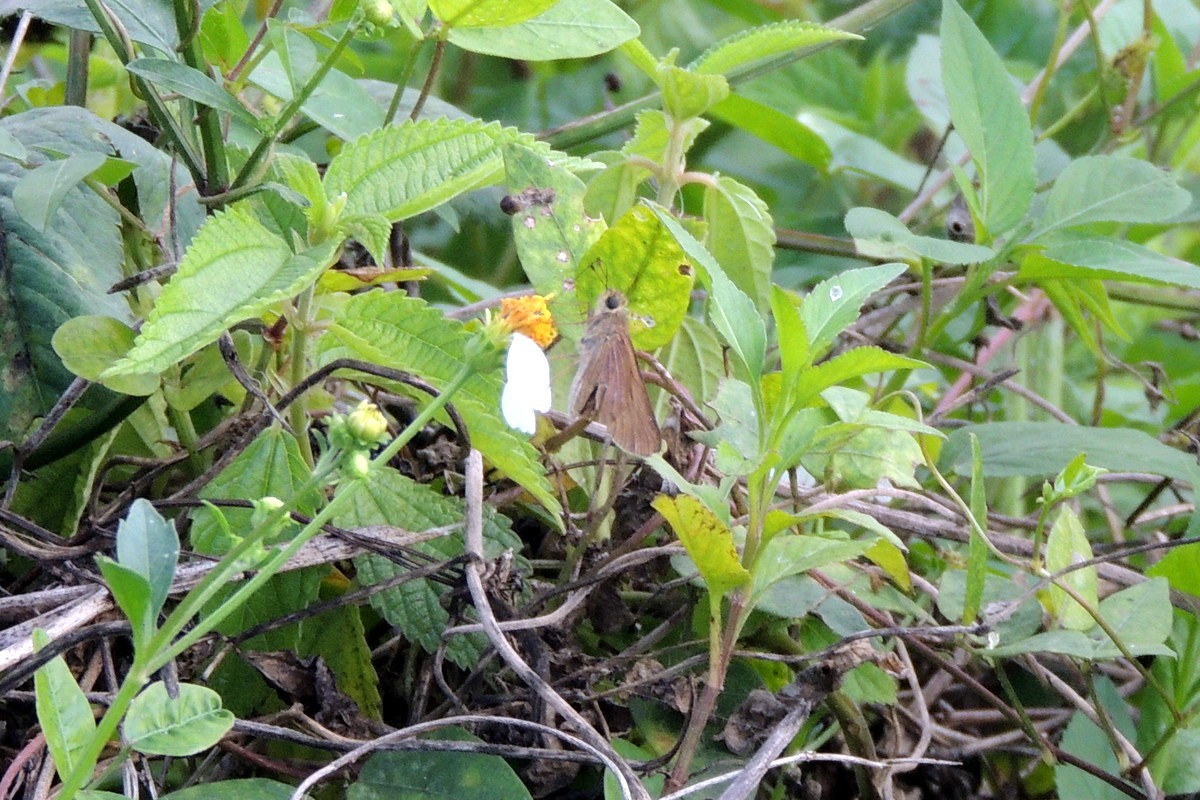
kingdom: Animalia
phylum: Arthropoda
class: Insecta
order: Lepidoptera
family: Hesperiidae
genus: Panoquina
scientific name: Panoquina ocola
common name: Ocola skipper
